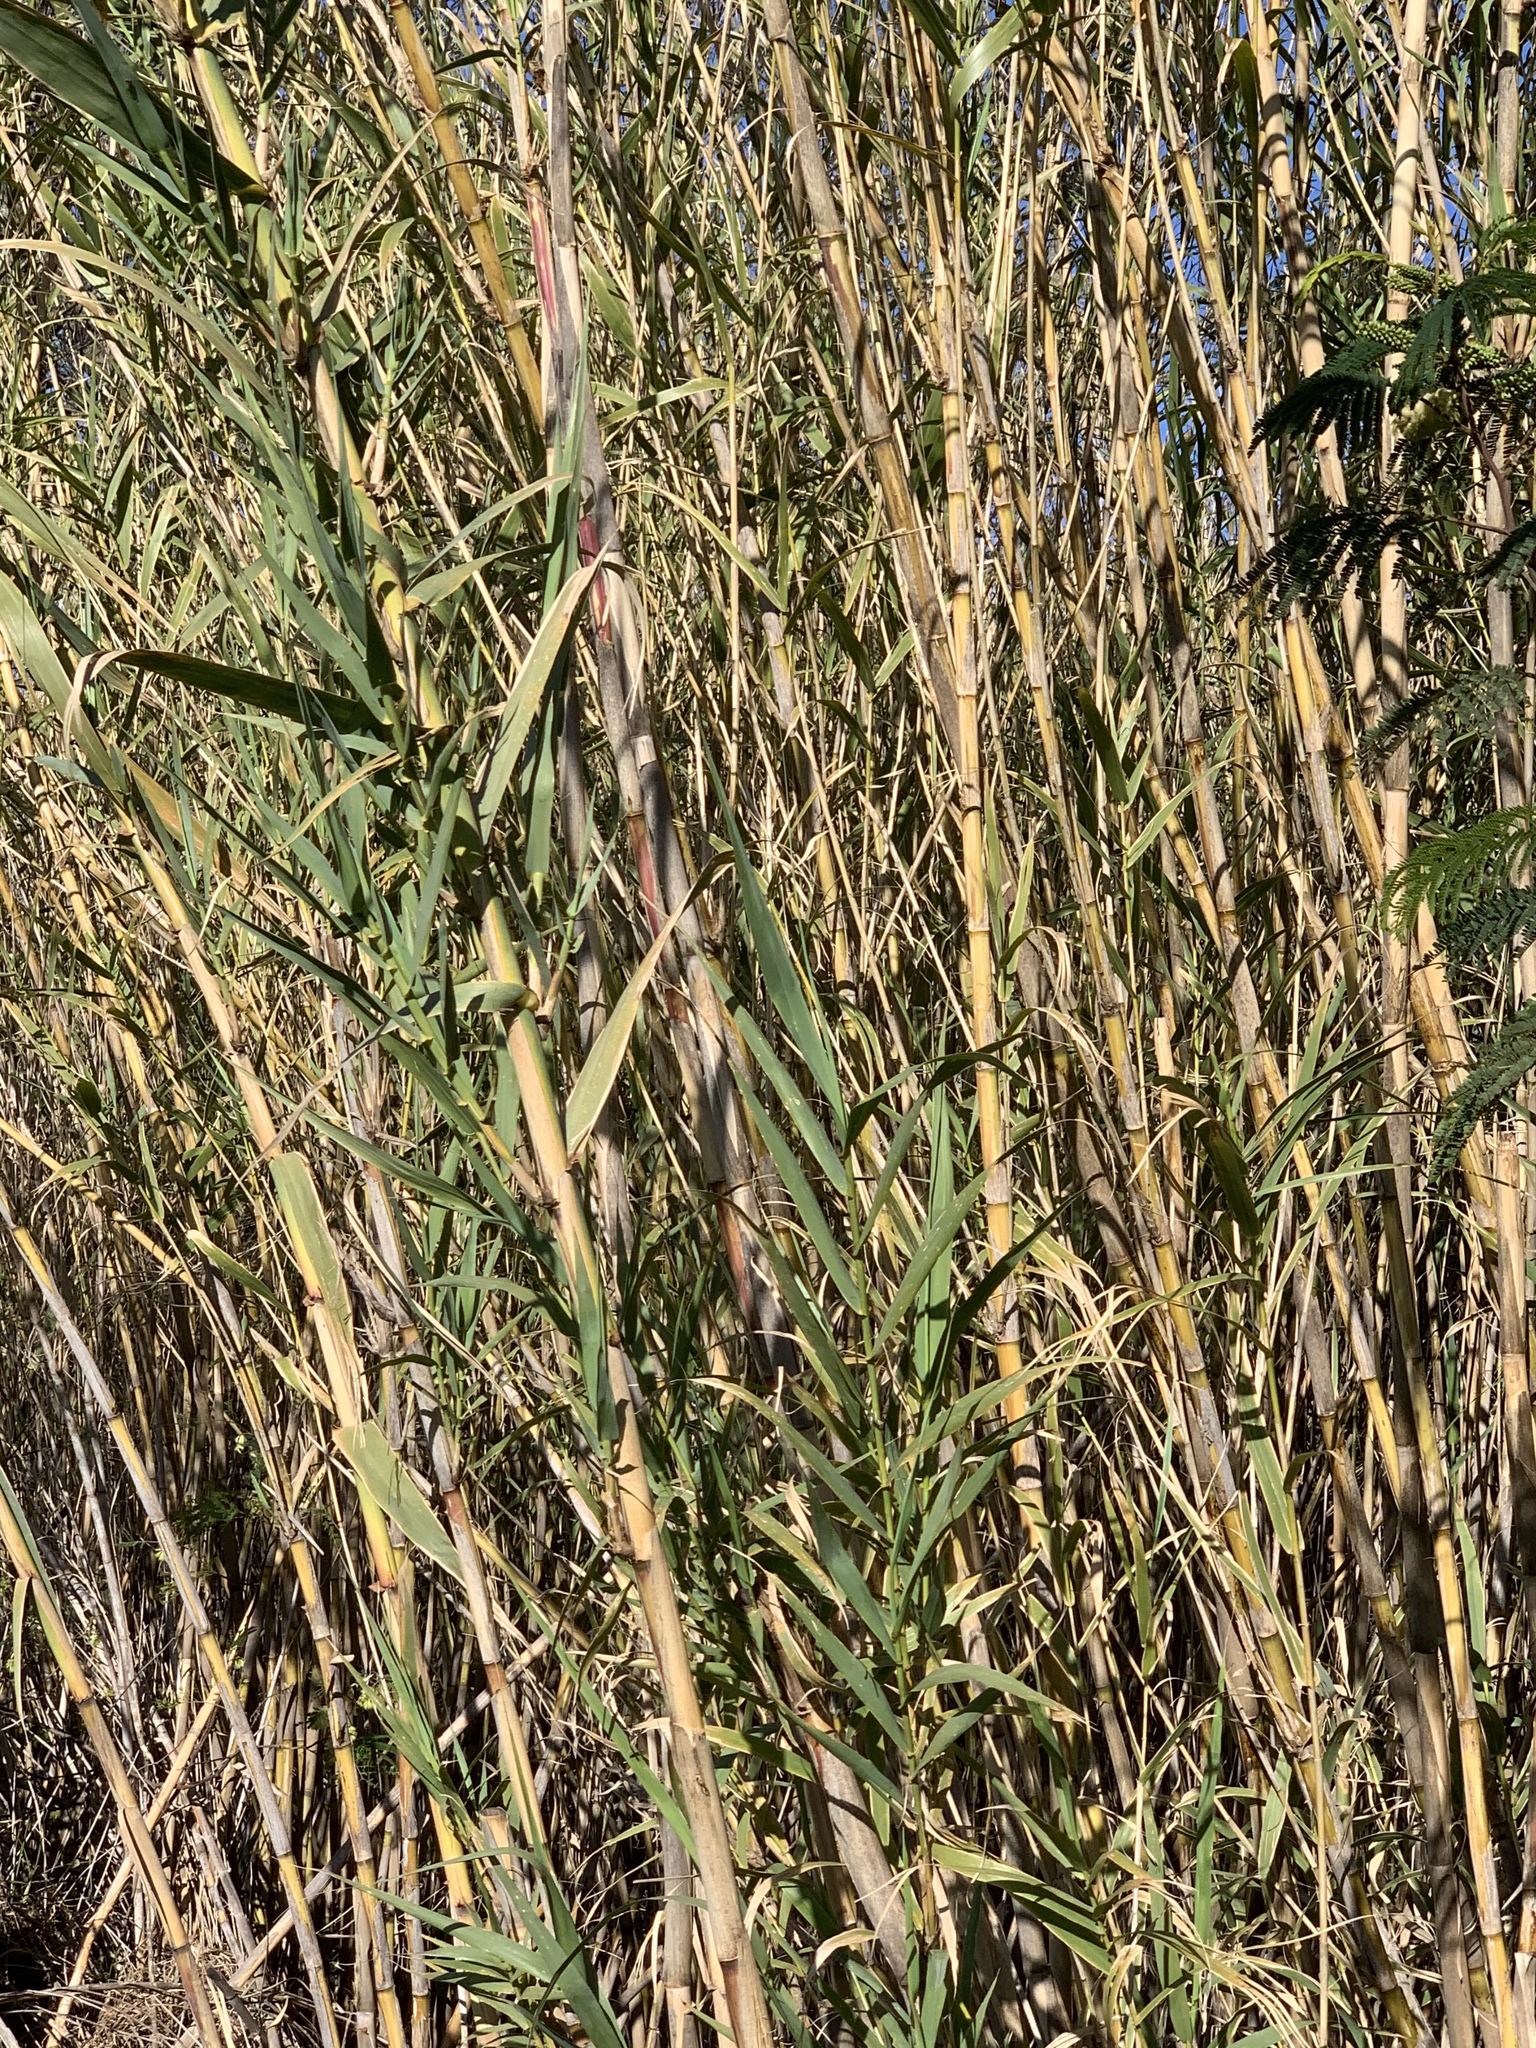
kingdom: Plantae
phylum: Tracheophyta
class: Liliopsida
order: Poales
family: Poaceae
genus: Arundo
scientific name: Arundo donax
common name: Giant reed
